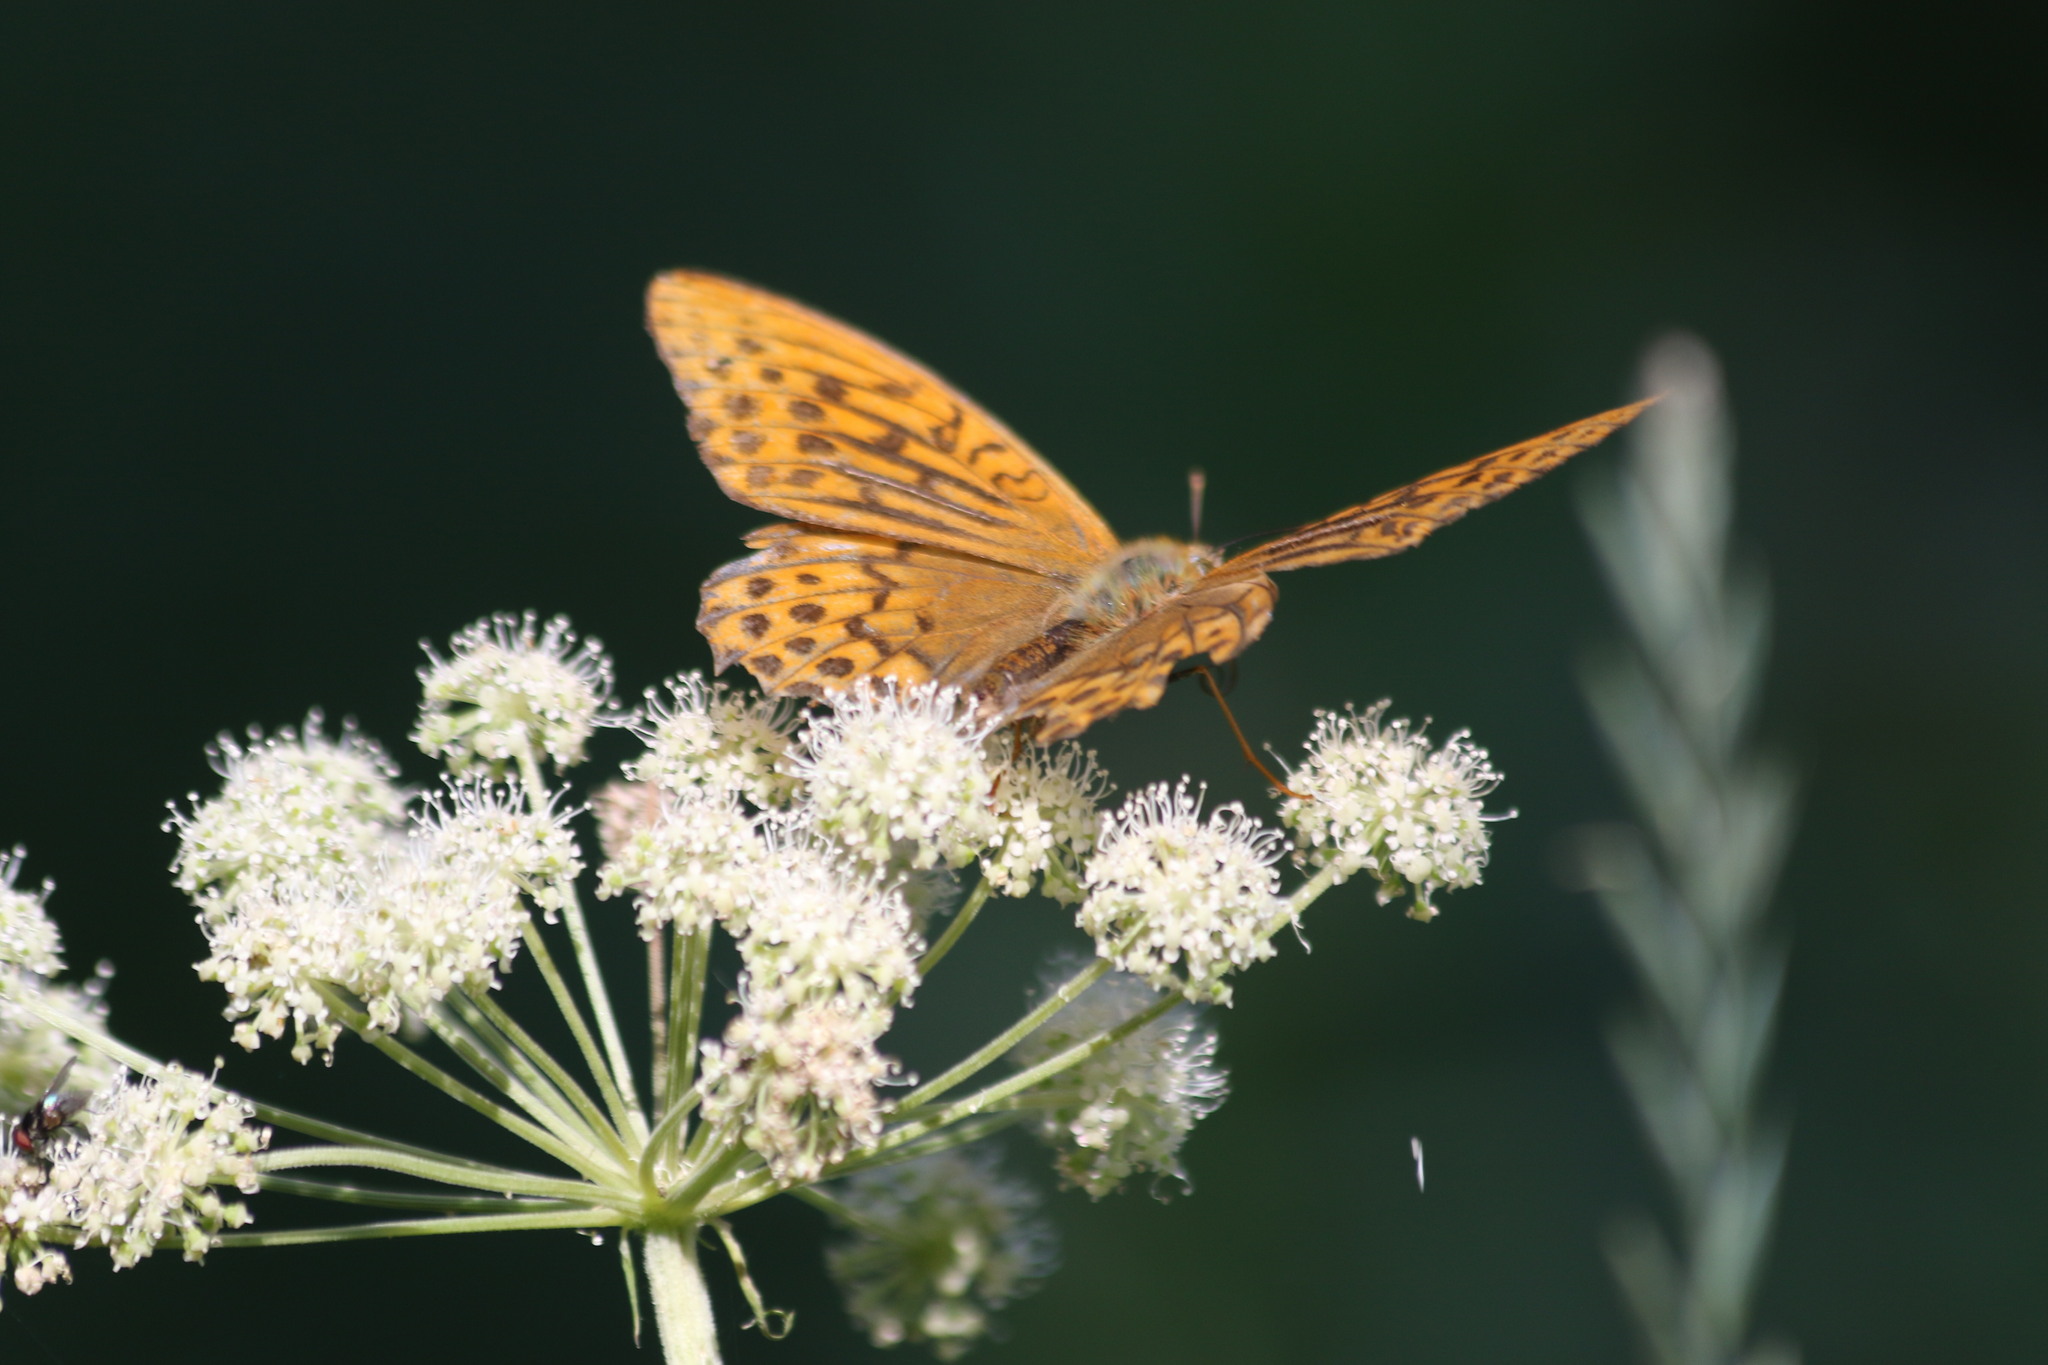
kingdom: Animalia
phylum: Arthropoda
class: Insecta
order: Lepidoptera
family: Nymphalidae
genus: Argynnis
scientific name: Argynnis paphia
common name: Silver-washed fritillary
